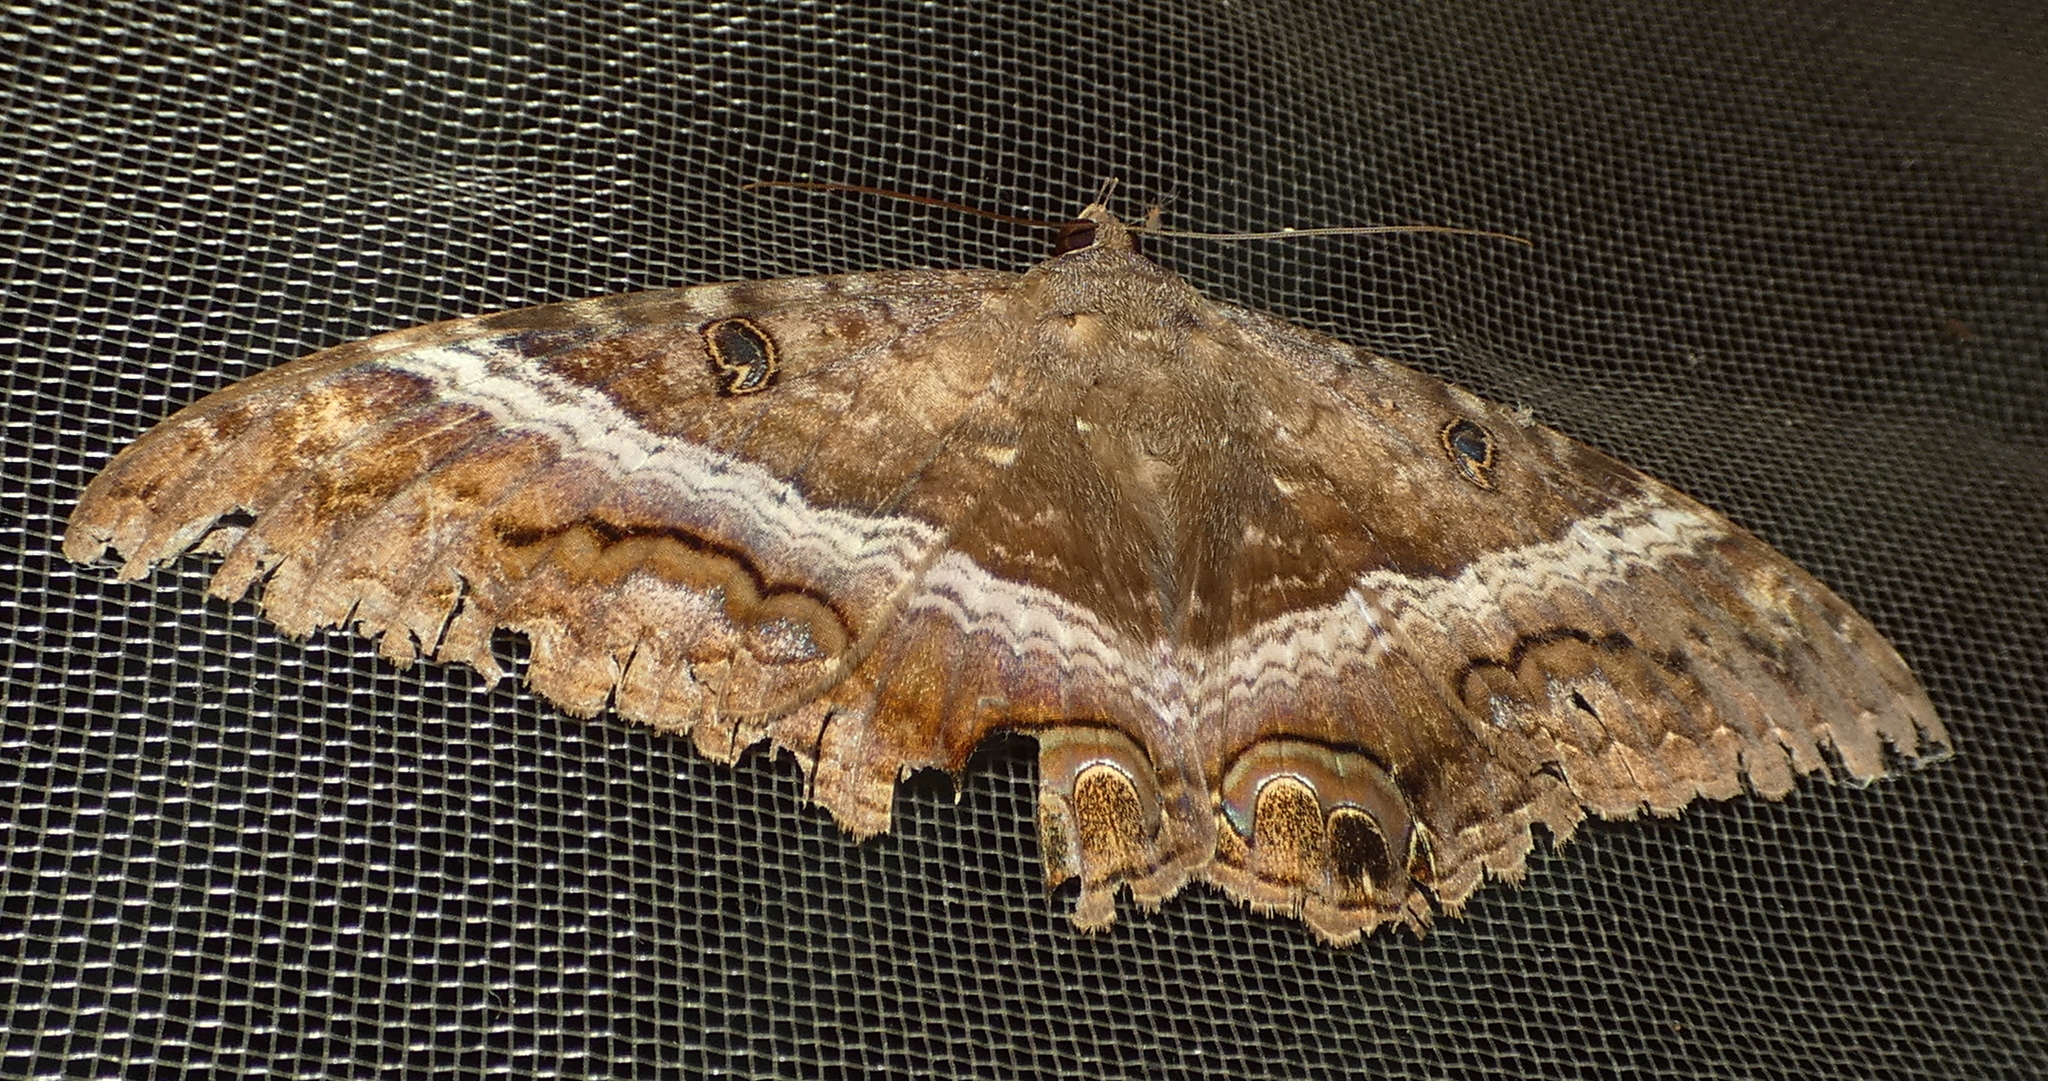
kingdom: Animalia
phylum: Arthropoda
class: Insecta
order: Lepidoptera
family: Erebidae
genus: Ascalapha
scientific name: Ascalapha odorata
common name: Black witch
